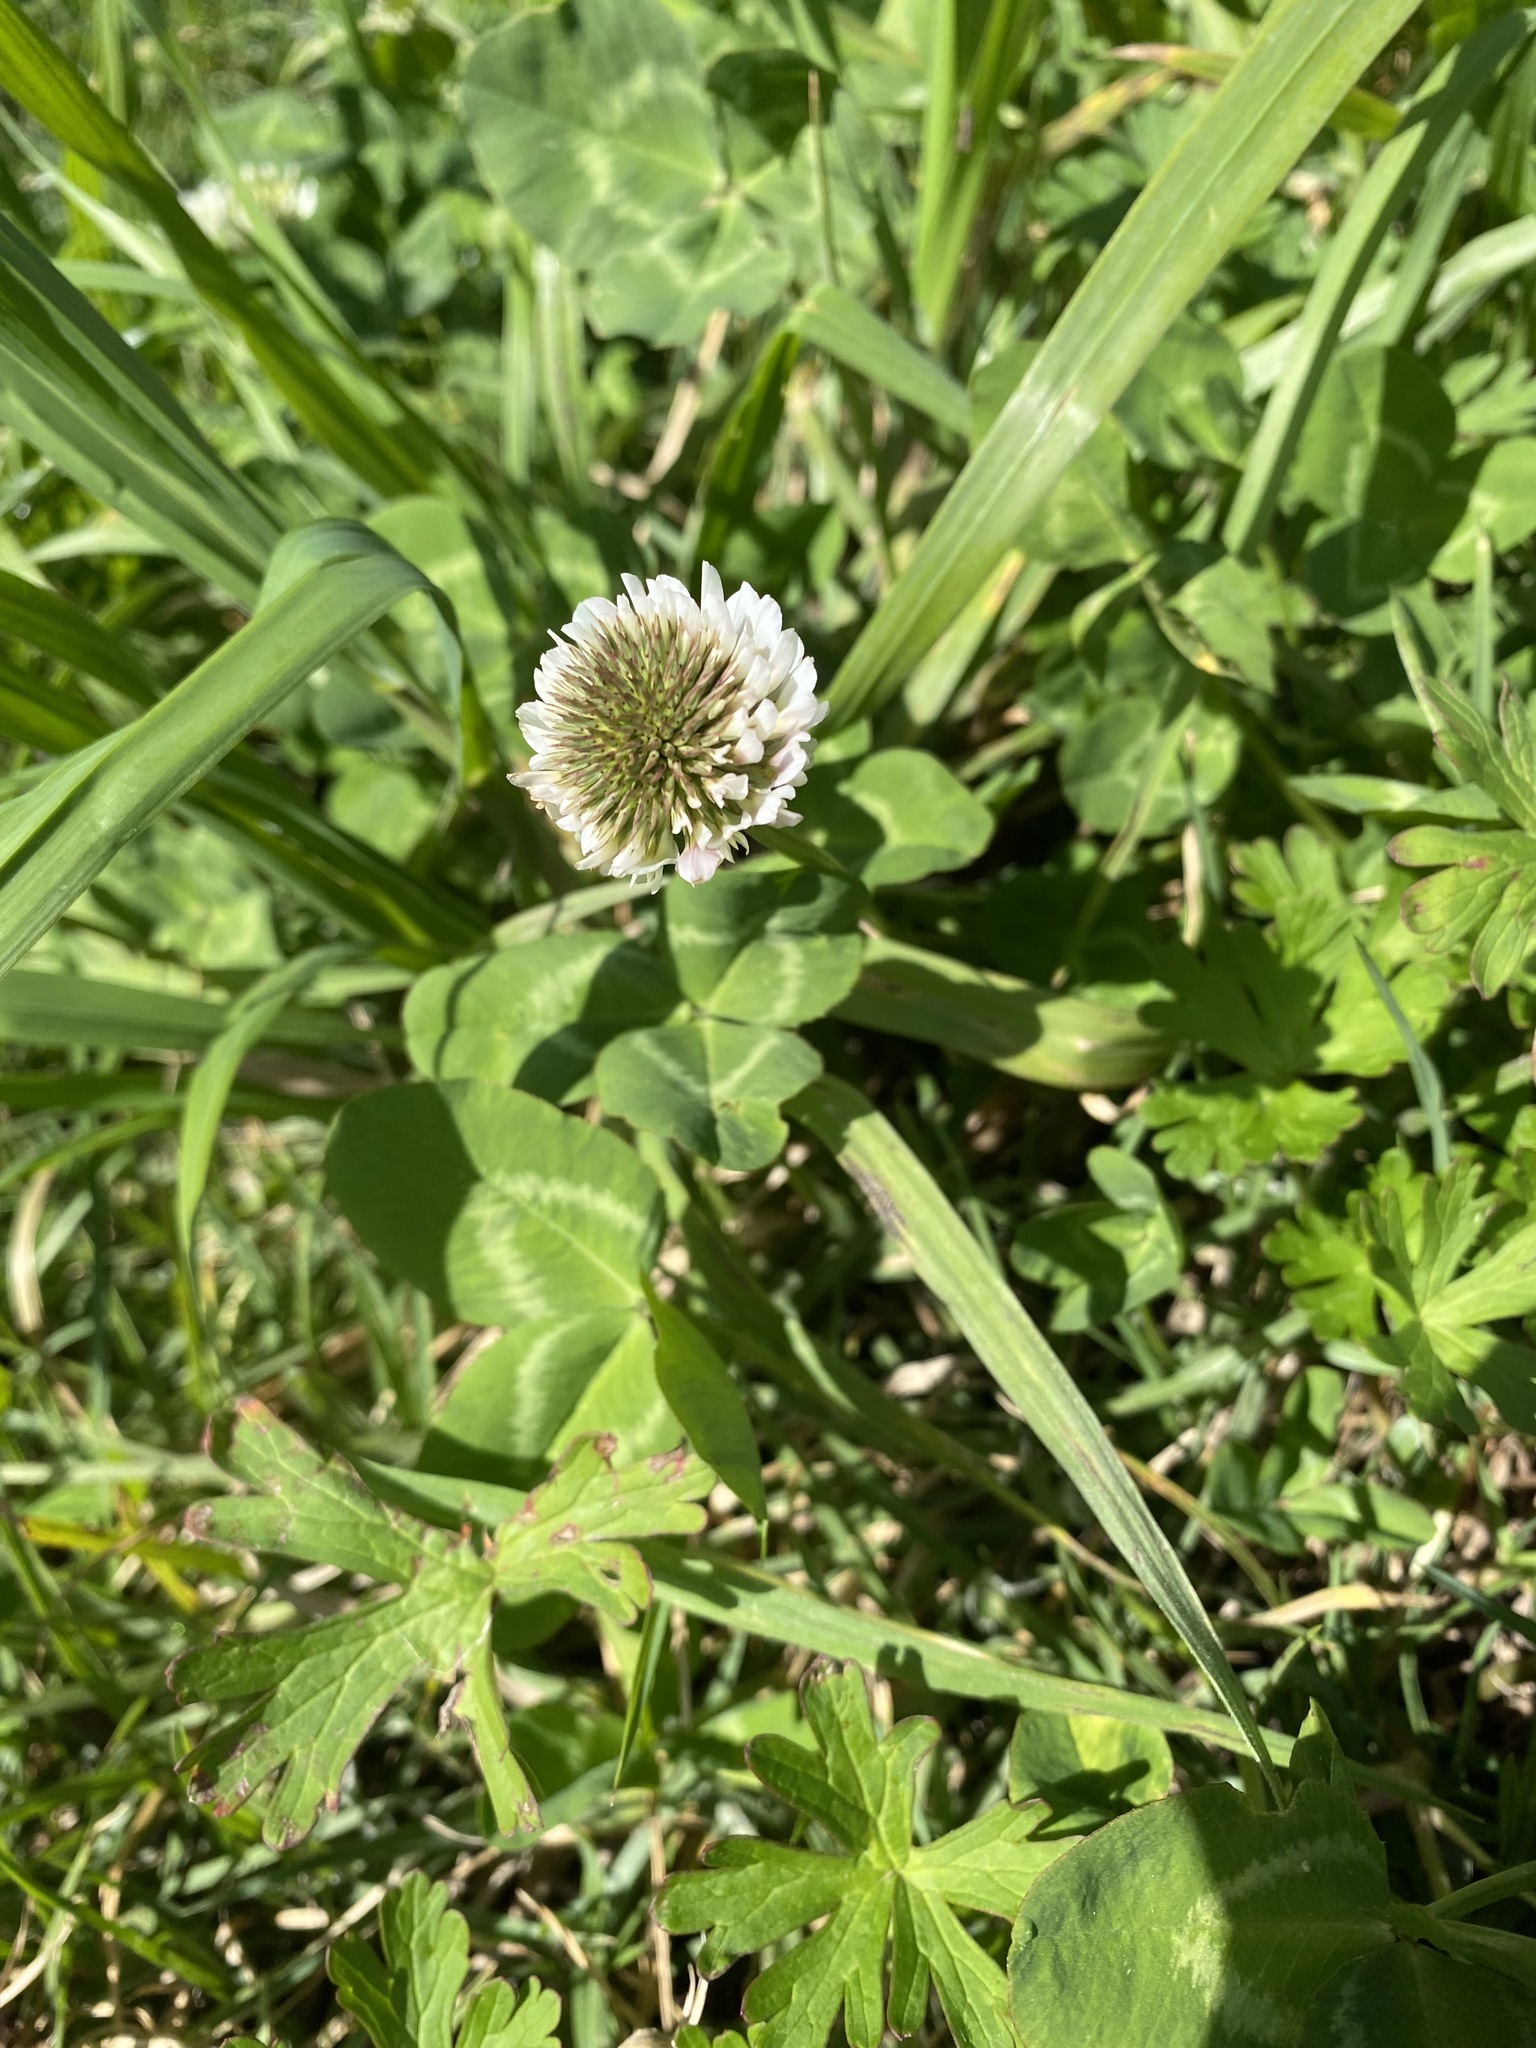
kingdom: Plantae
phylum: Tracheophyta
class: Magnoliopsida
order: Fabales
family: Fabaceae
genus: Trifolium
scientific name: Trifolium repens
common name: White clover
